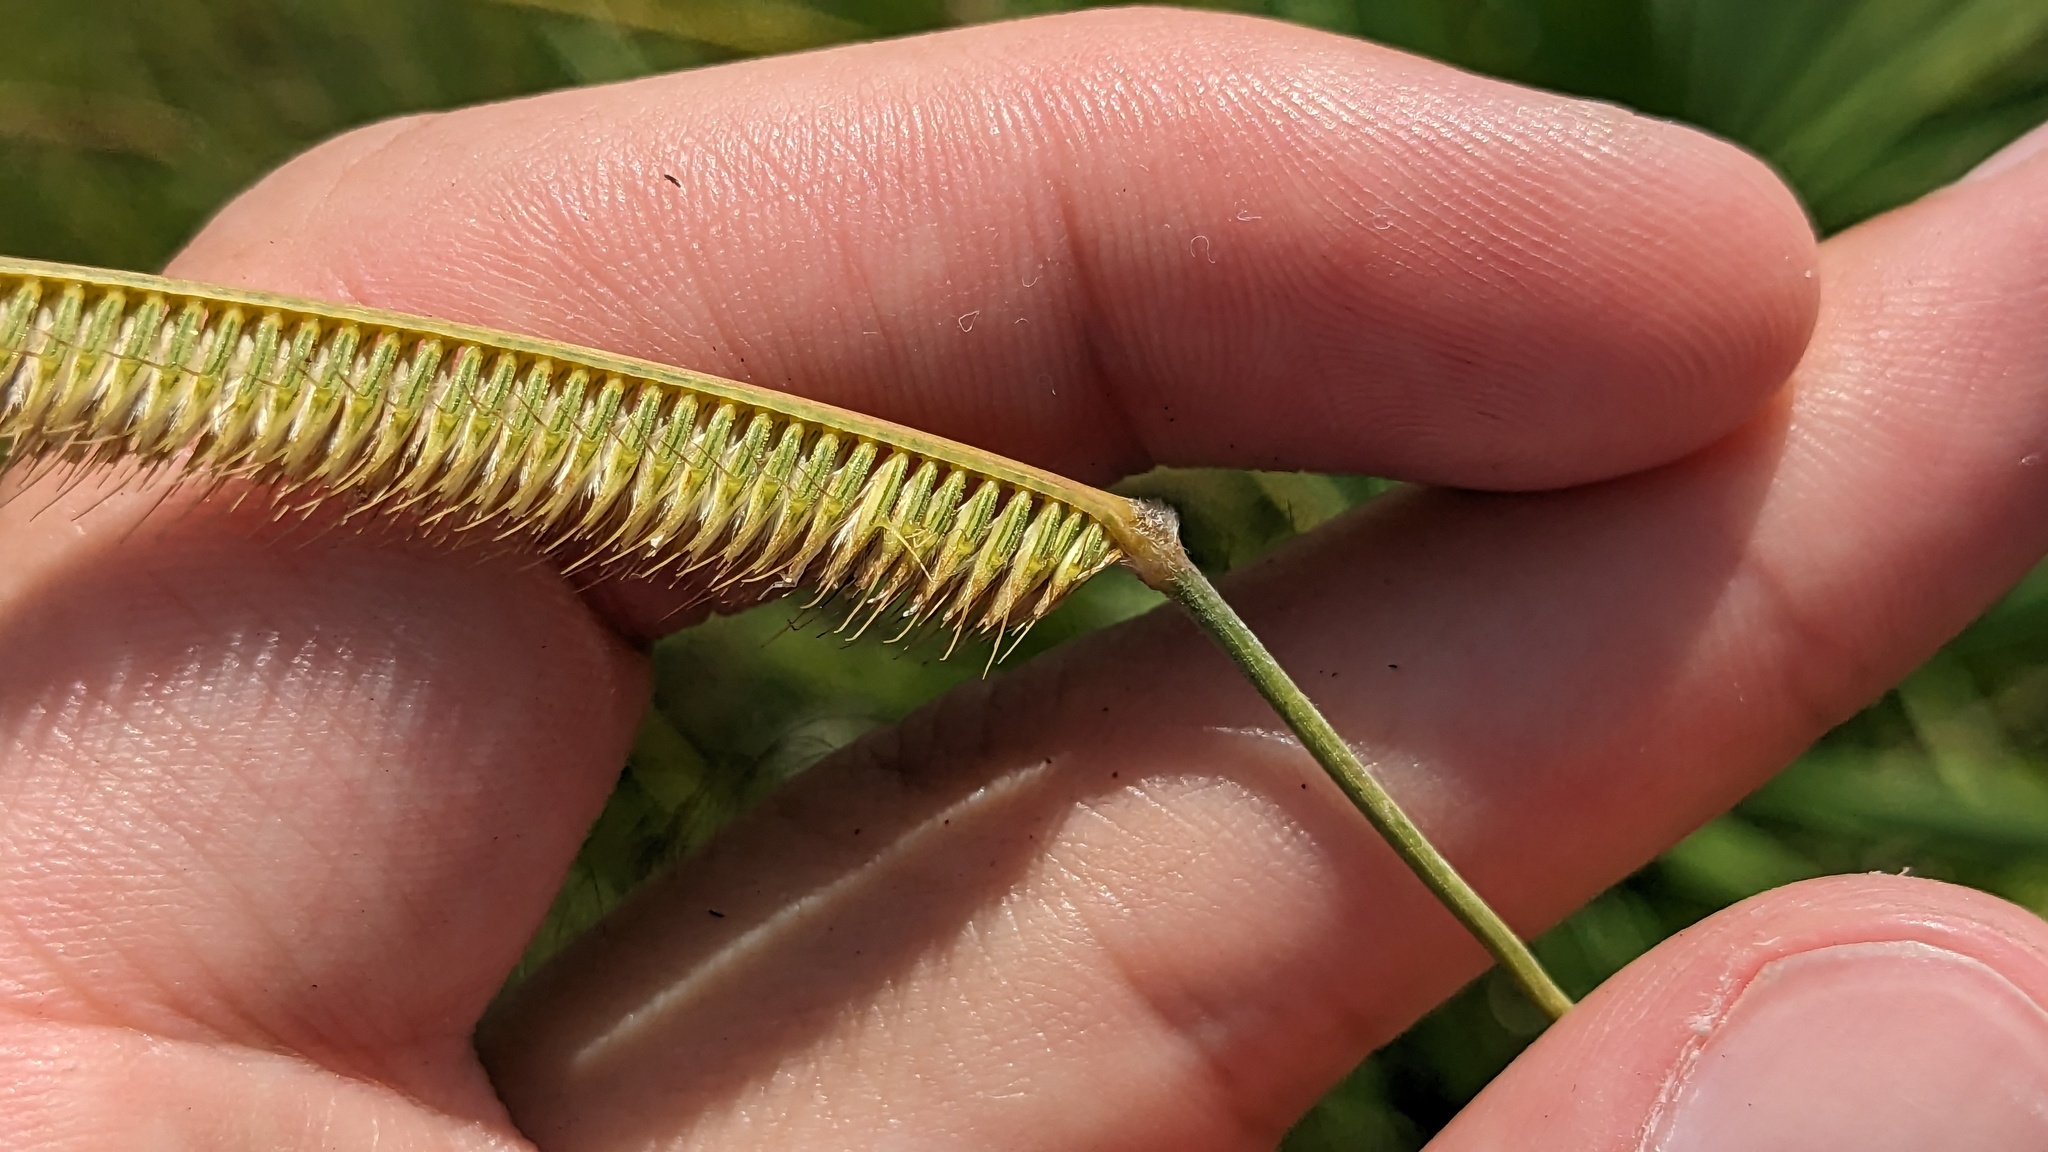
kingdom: Plantae
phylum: Tracheophyta
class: Liliopsida
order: Poales
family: Poaceae
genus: Ctenium
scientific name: Ctenium aromaticum
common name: Toothache grass
